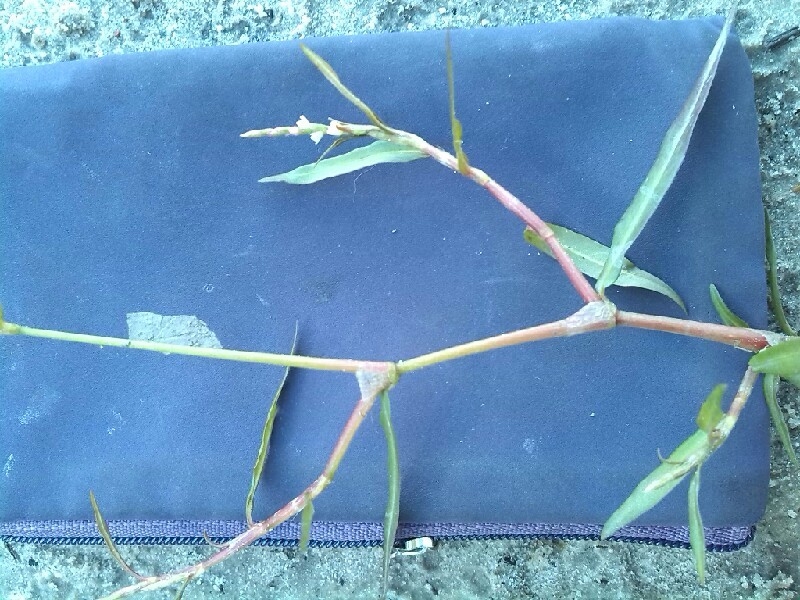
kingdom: Plantae
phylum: Tracheophyta
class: Magnoliopsida
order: Caryophyllales
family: Polygonaceae
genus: Persicaria
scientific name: Persicaria minor
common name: Small water-pepper
